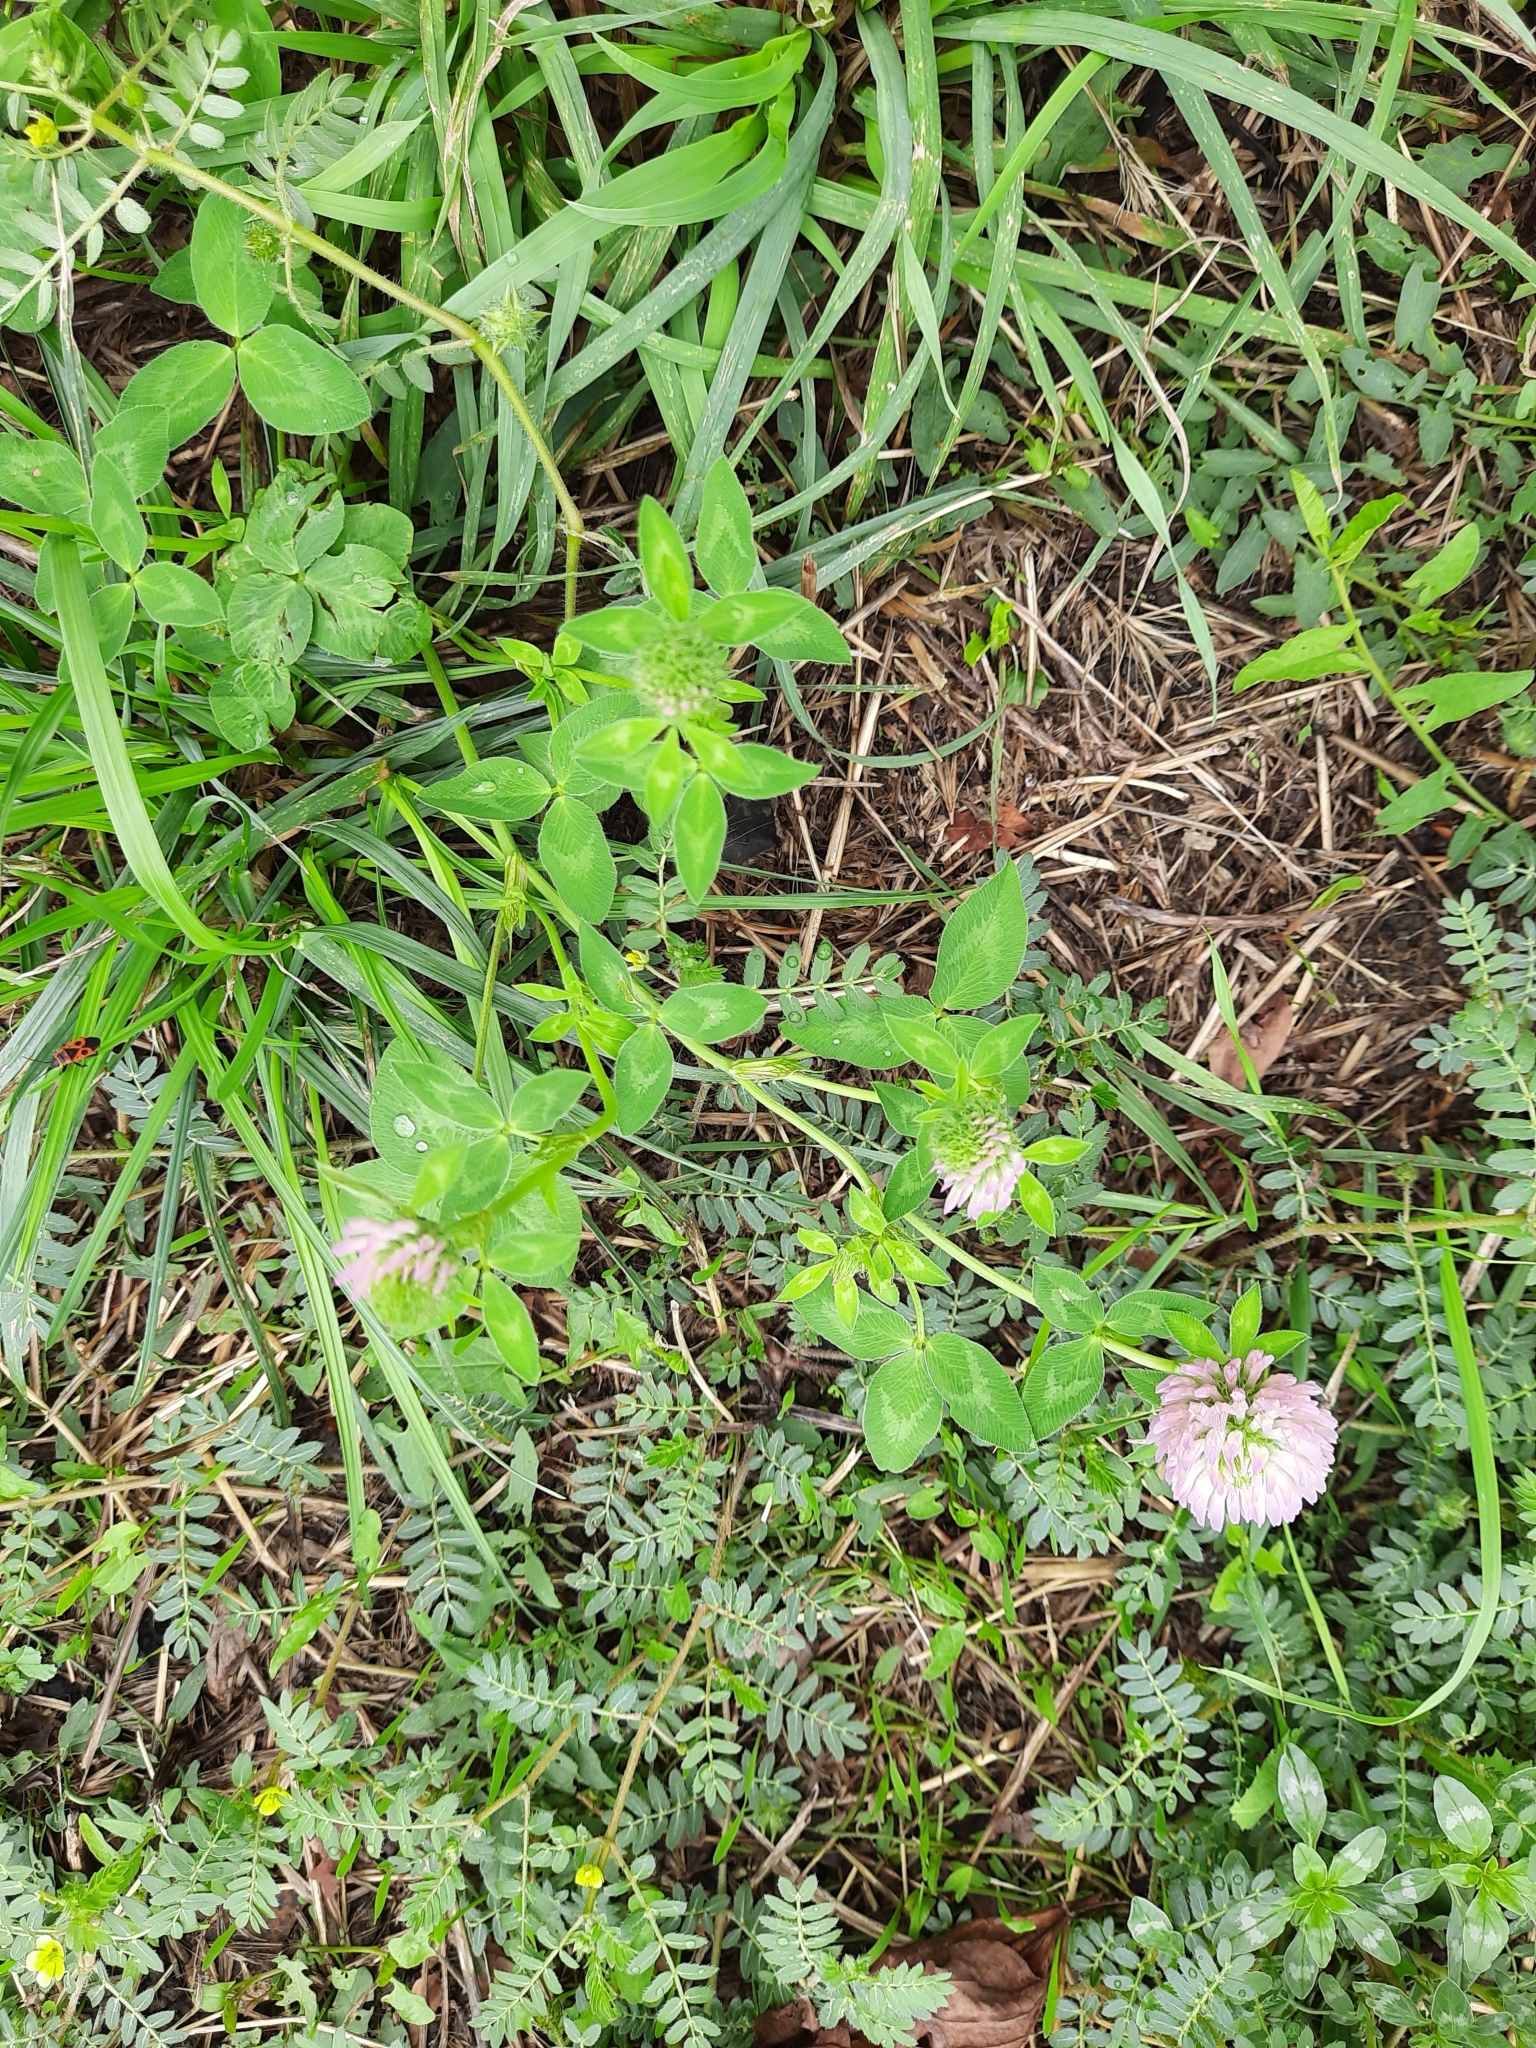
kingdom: Plantae
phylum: Tracheophyta
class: Magnoliopsida
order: Fabales
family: Fabaceae
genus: Trifolium
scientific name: Trifolium pratense
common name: Red clover
